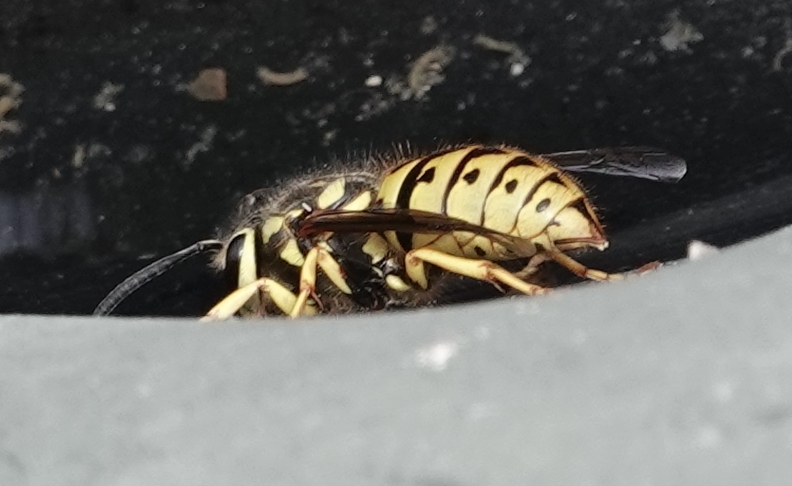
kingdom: Animalia
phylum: Arthropoda
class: Insecta
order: Hymenoptera
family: Vespidae
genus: Vespula
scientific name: Vespula pensylvanica
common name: Western yellowjacket
